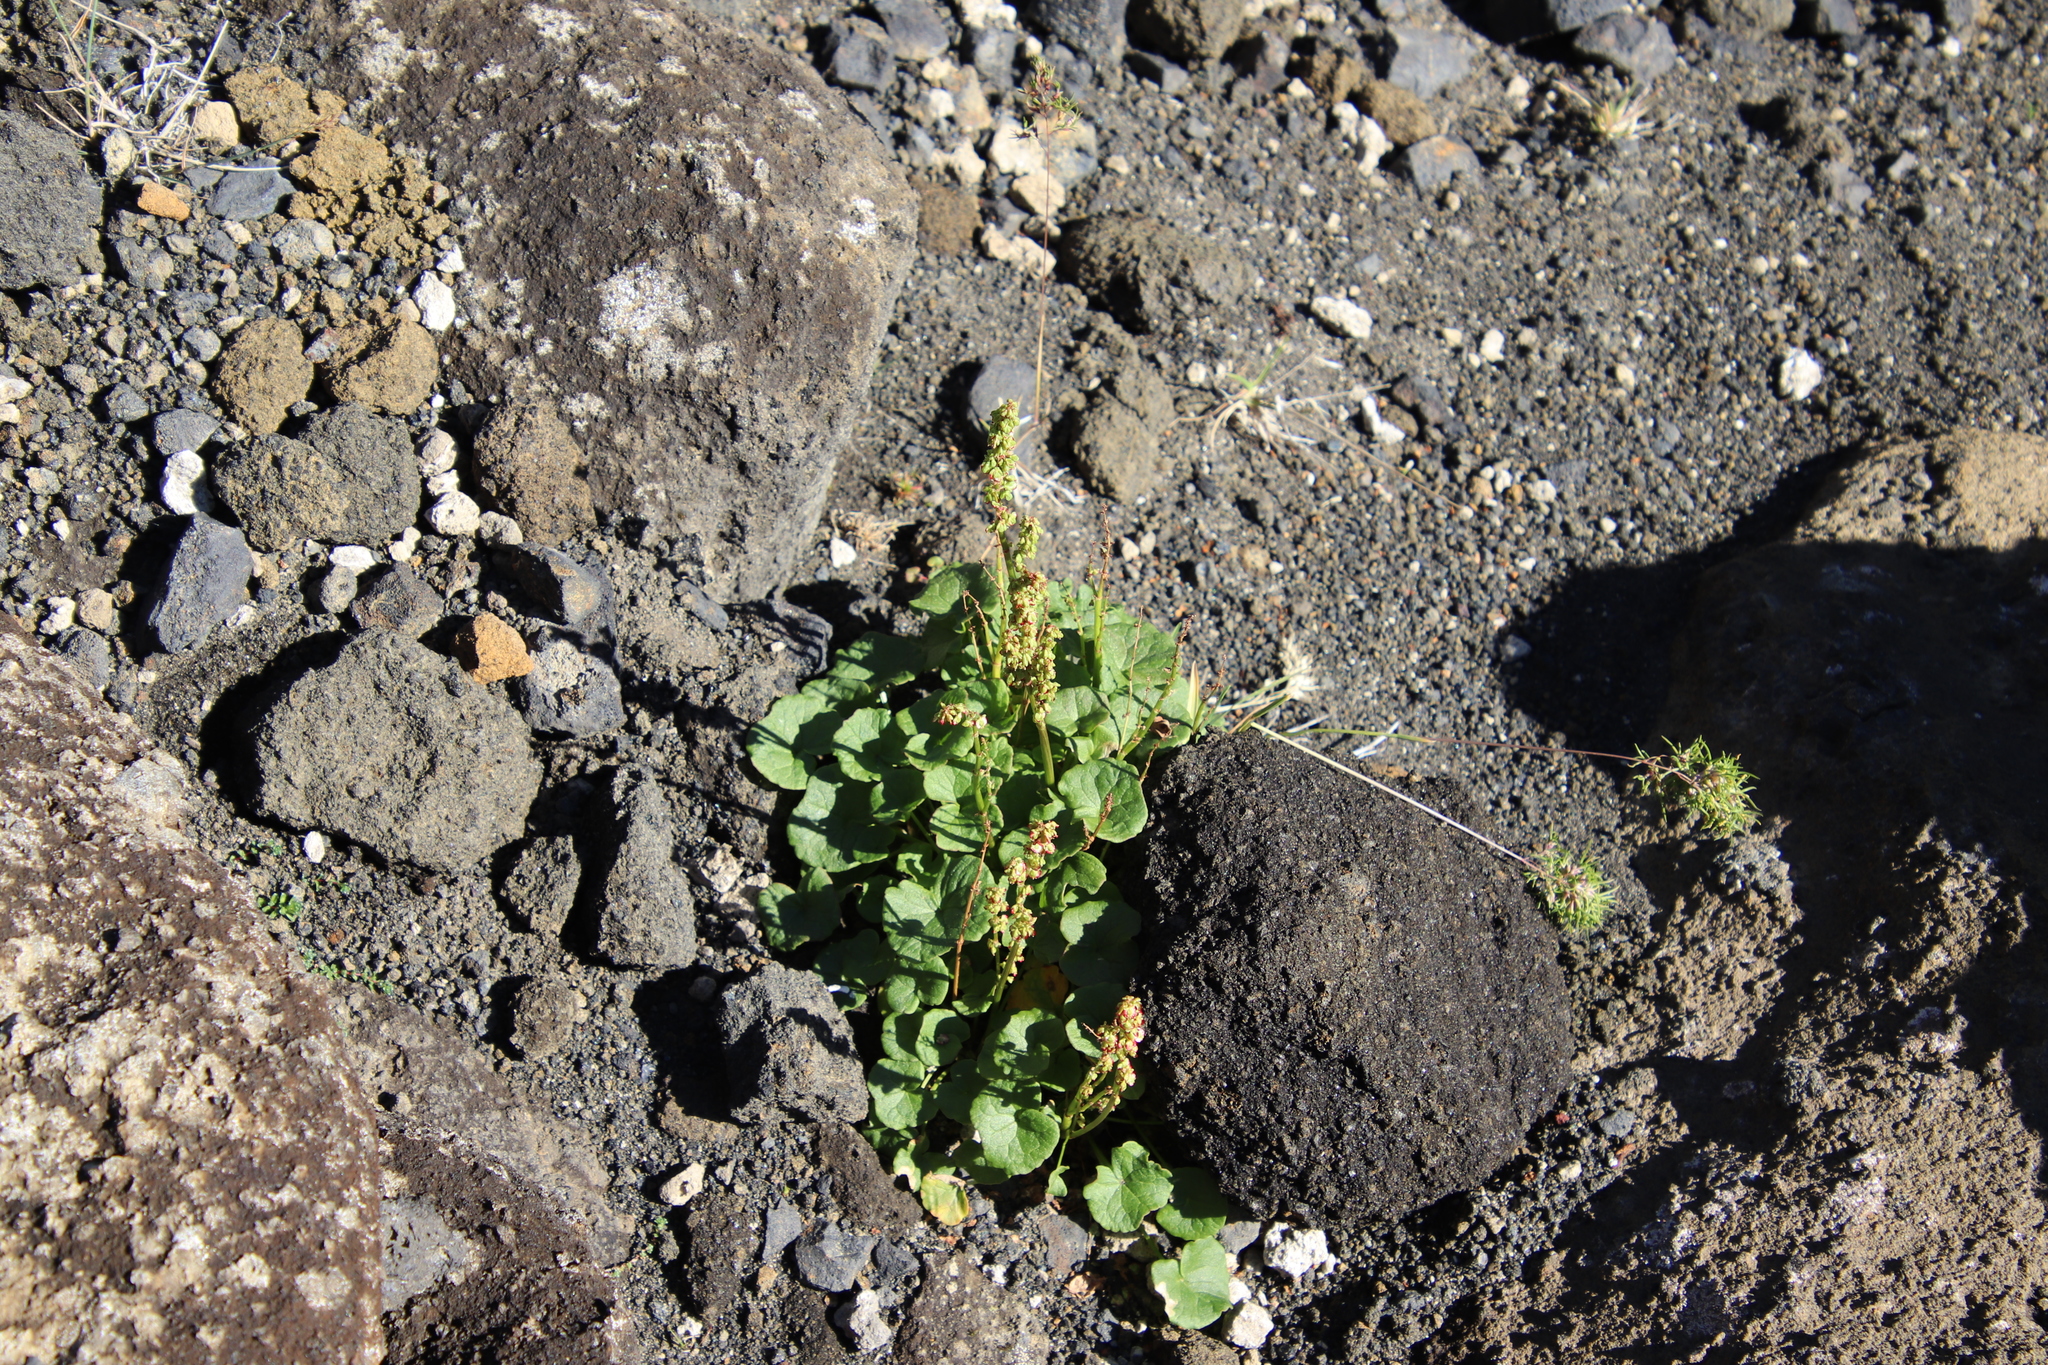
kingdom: Plantae
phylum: Tracheophyta
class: Magnoliopsida
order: Caryophyllales
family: Polygonaceae
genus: Oxyria
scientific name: Oxyria digyna
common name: Alpine mountain-sorrel
